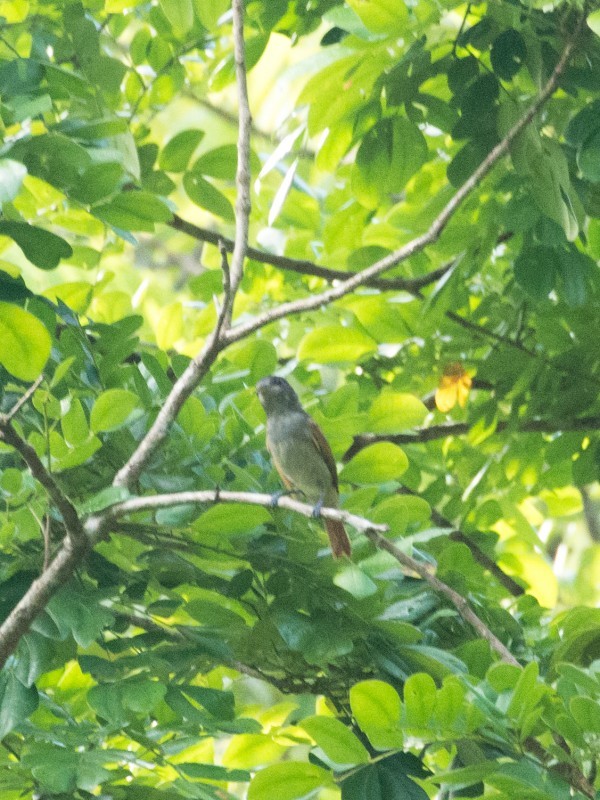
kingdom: Animalia
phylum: Chordata
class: Aves
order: Passeriformes
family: Cotingidae
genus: Pachyramphus
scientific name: Pachyramphus aglaiae
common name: Rose-throated becard
